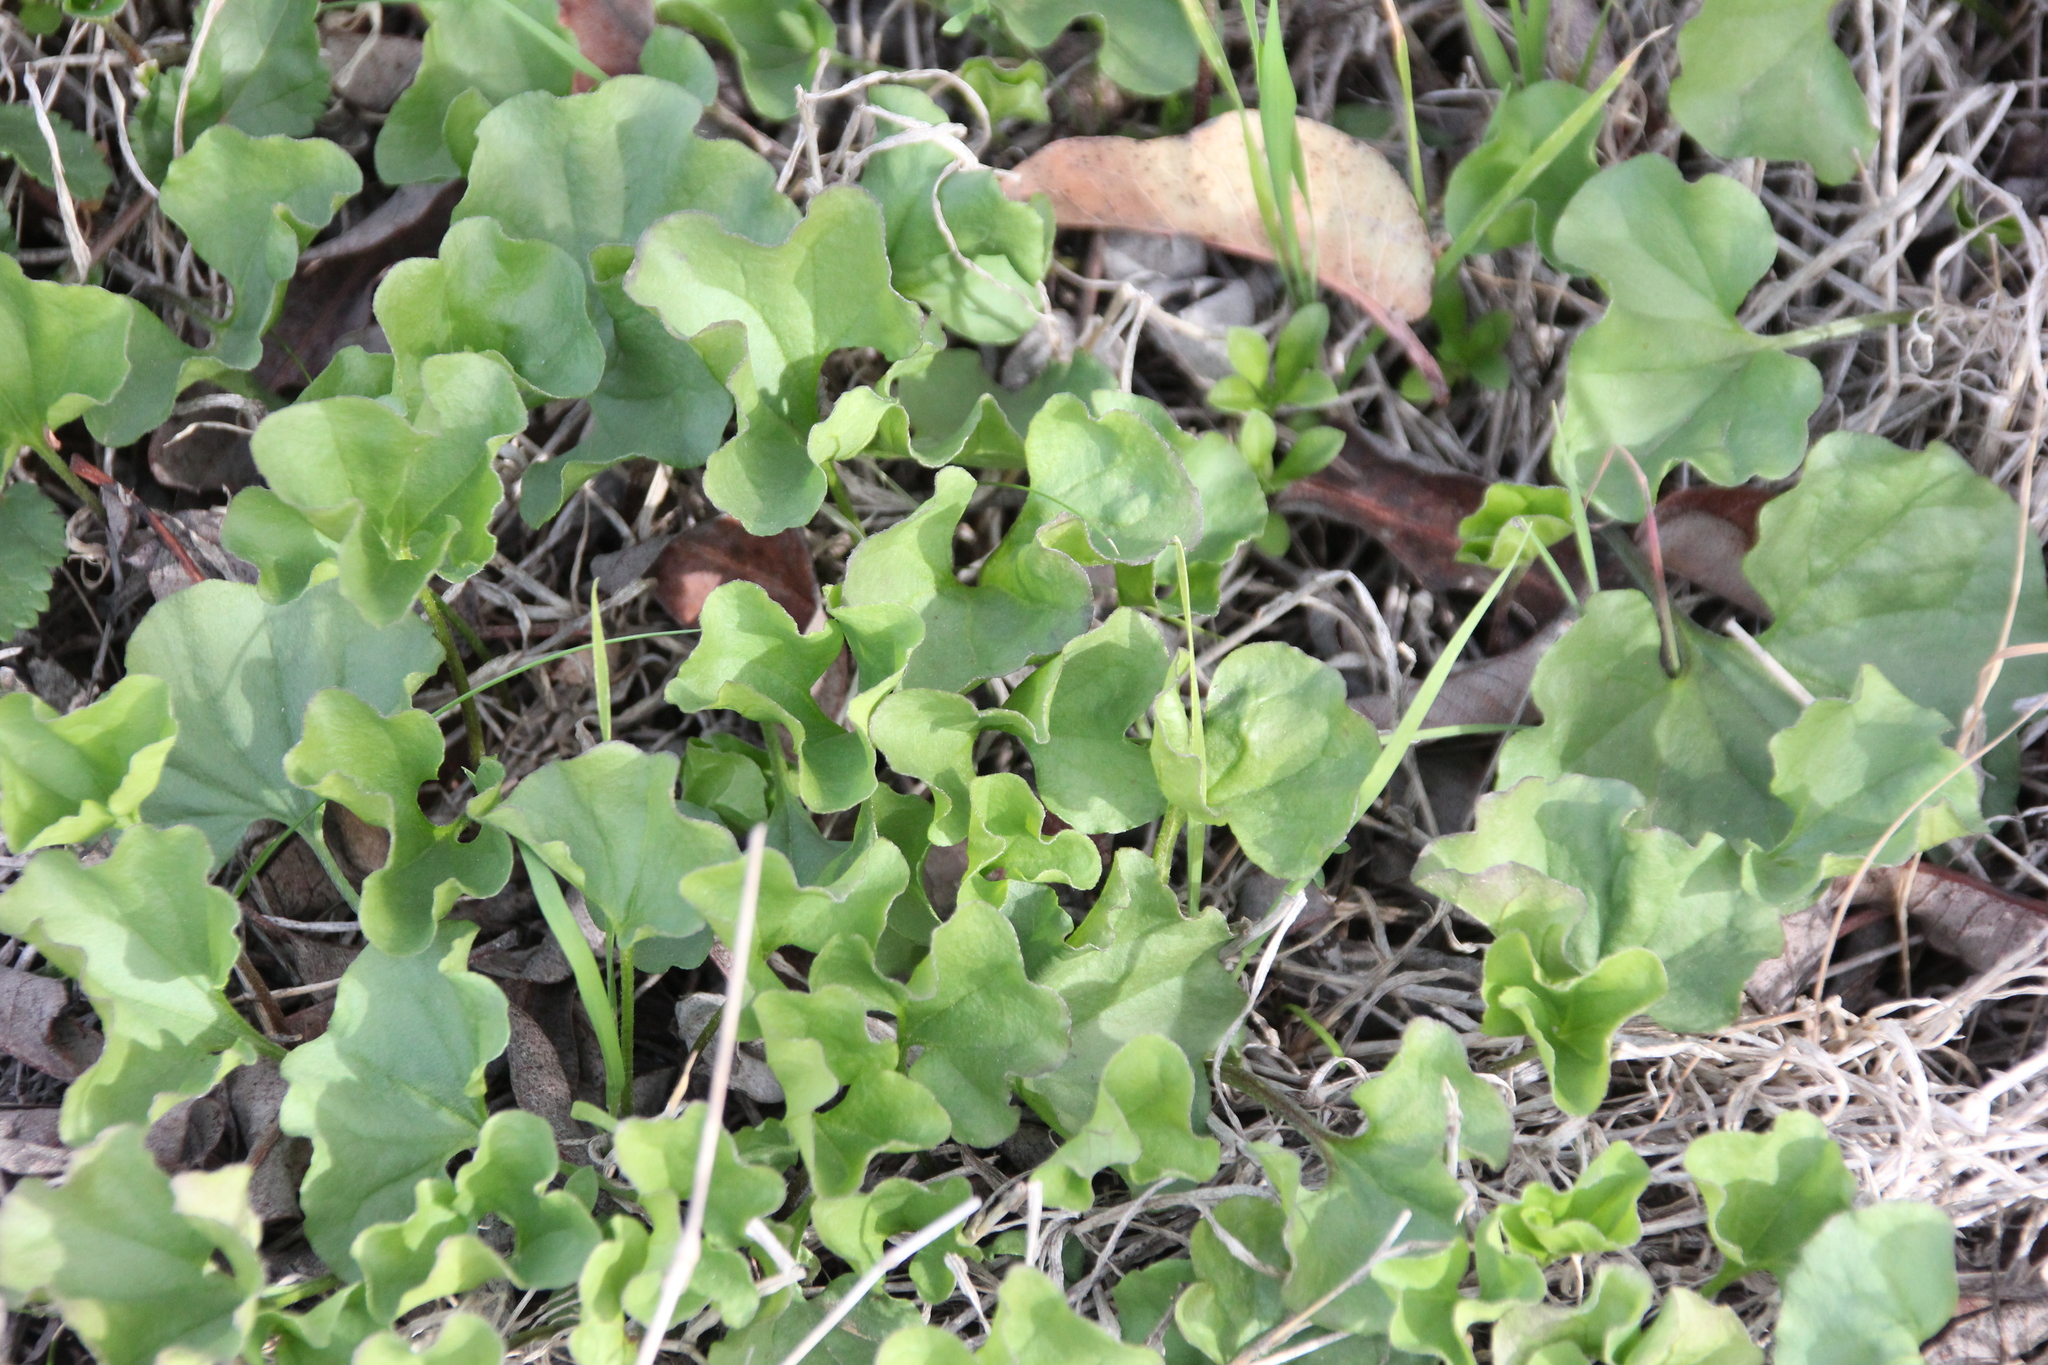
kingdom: Plantae
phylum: Tracheophyta
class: Magnoliopsida
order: Solanales
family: Convolvulaceae
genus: Dichondra
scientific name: Dichondra occidentalis
